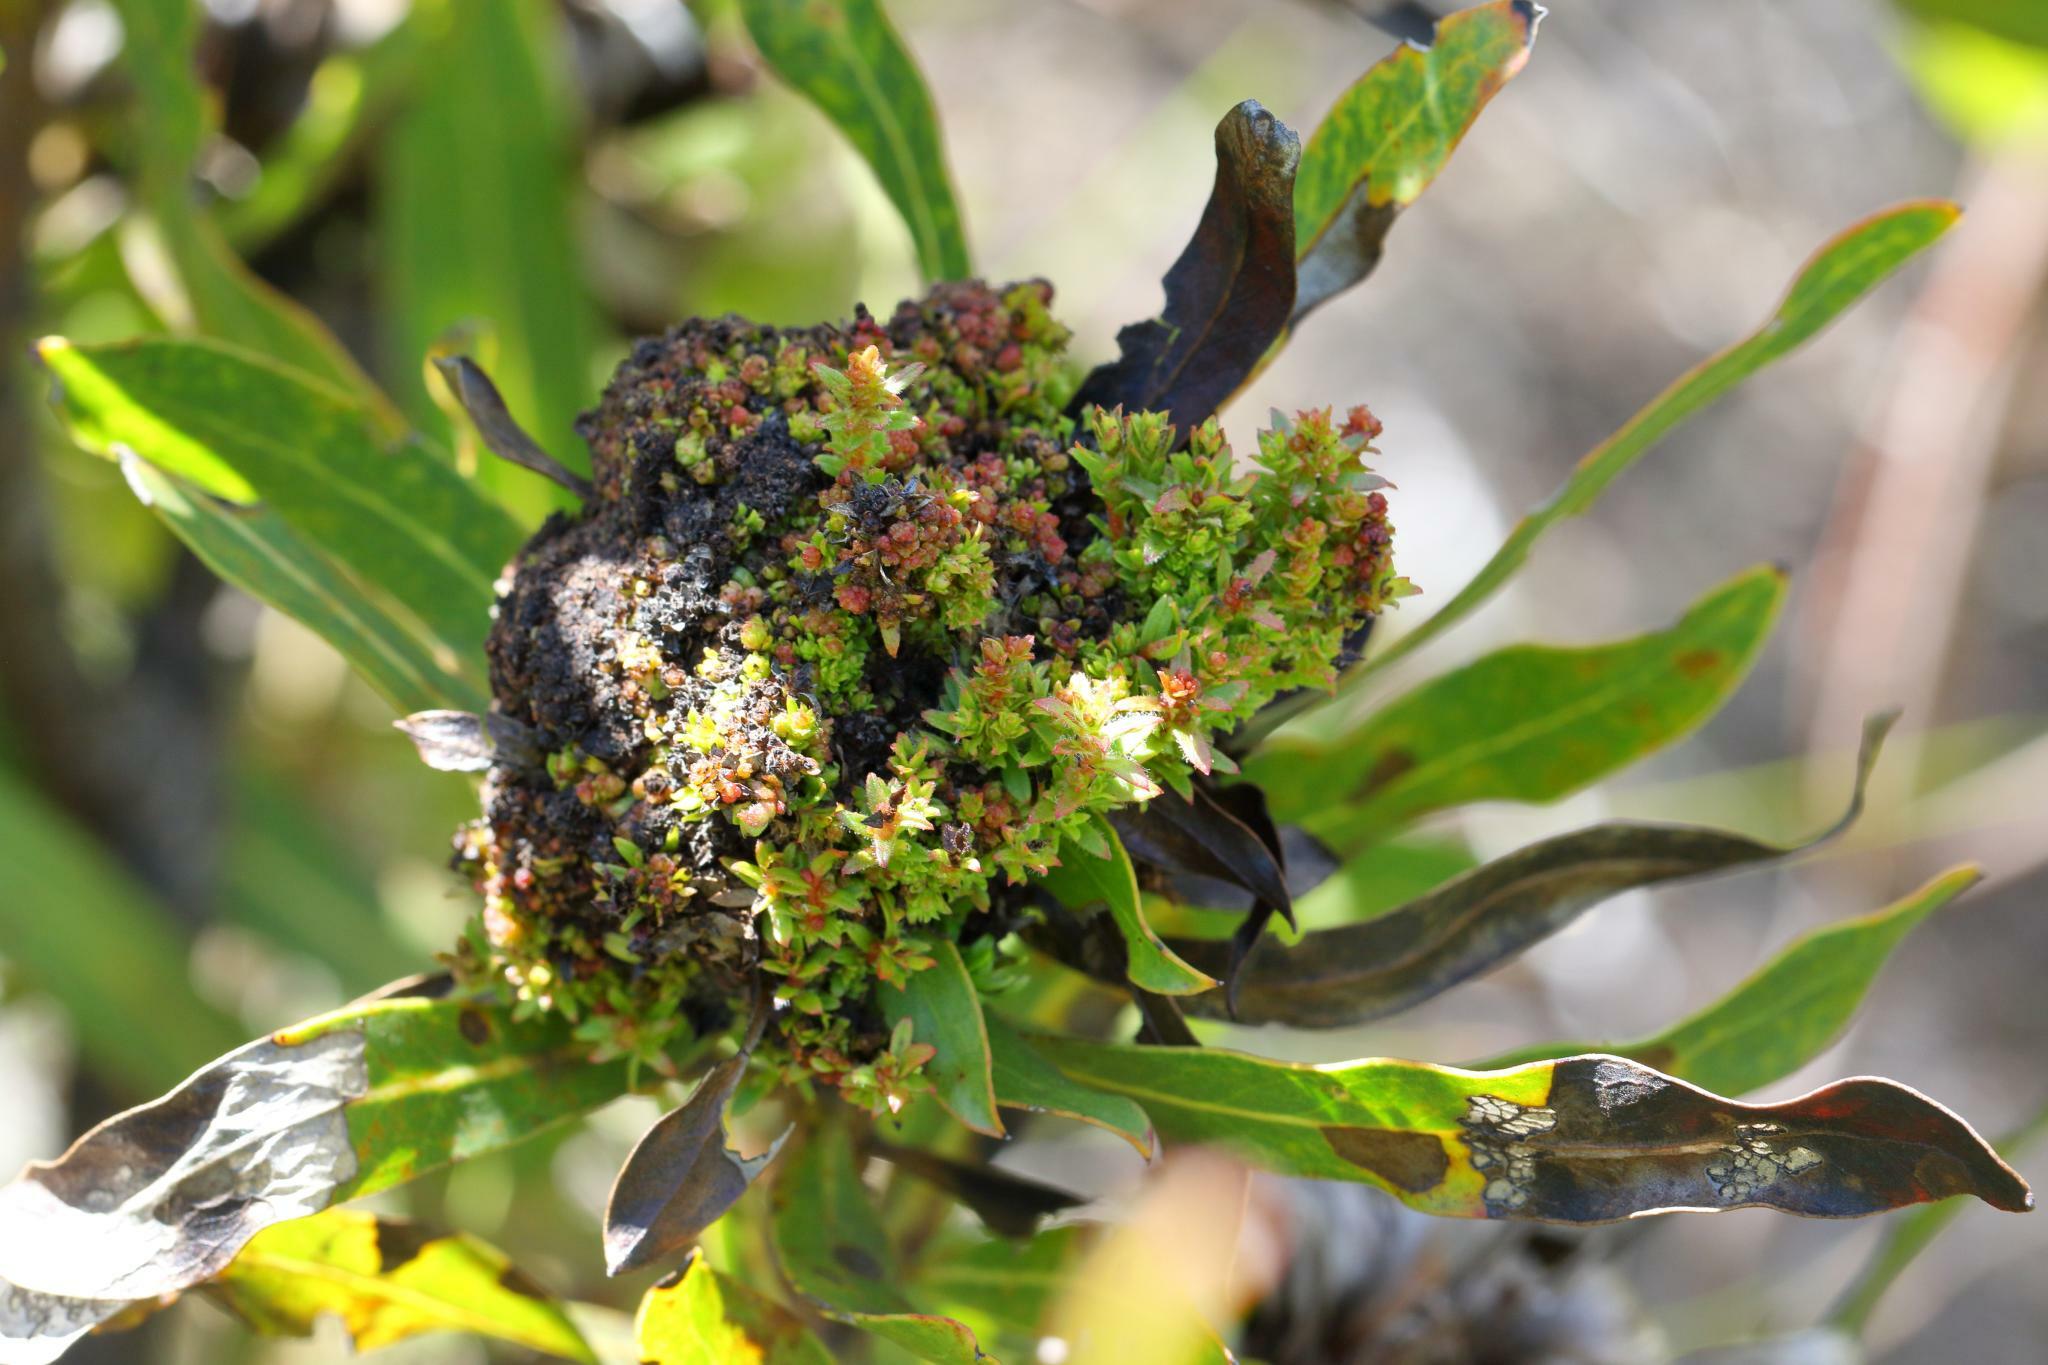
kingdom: Bacteria
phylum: Firmicutes
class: Bacilli
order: Acholeplasmatales
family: Acholeplasmataceae
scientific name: Acholeplasmataceae
